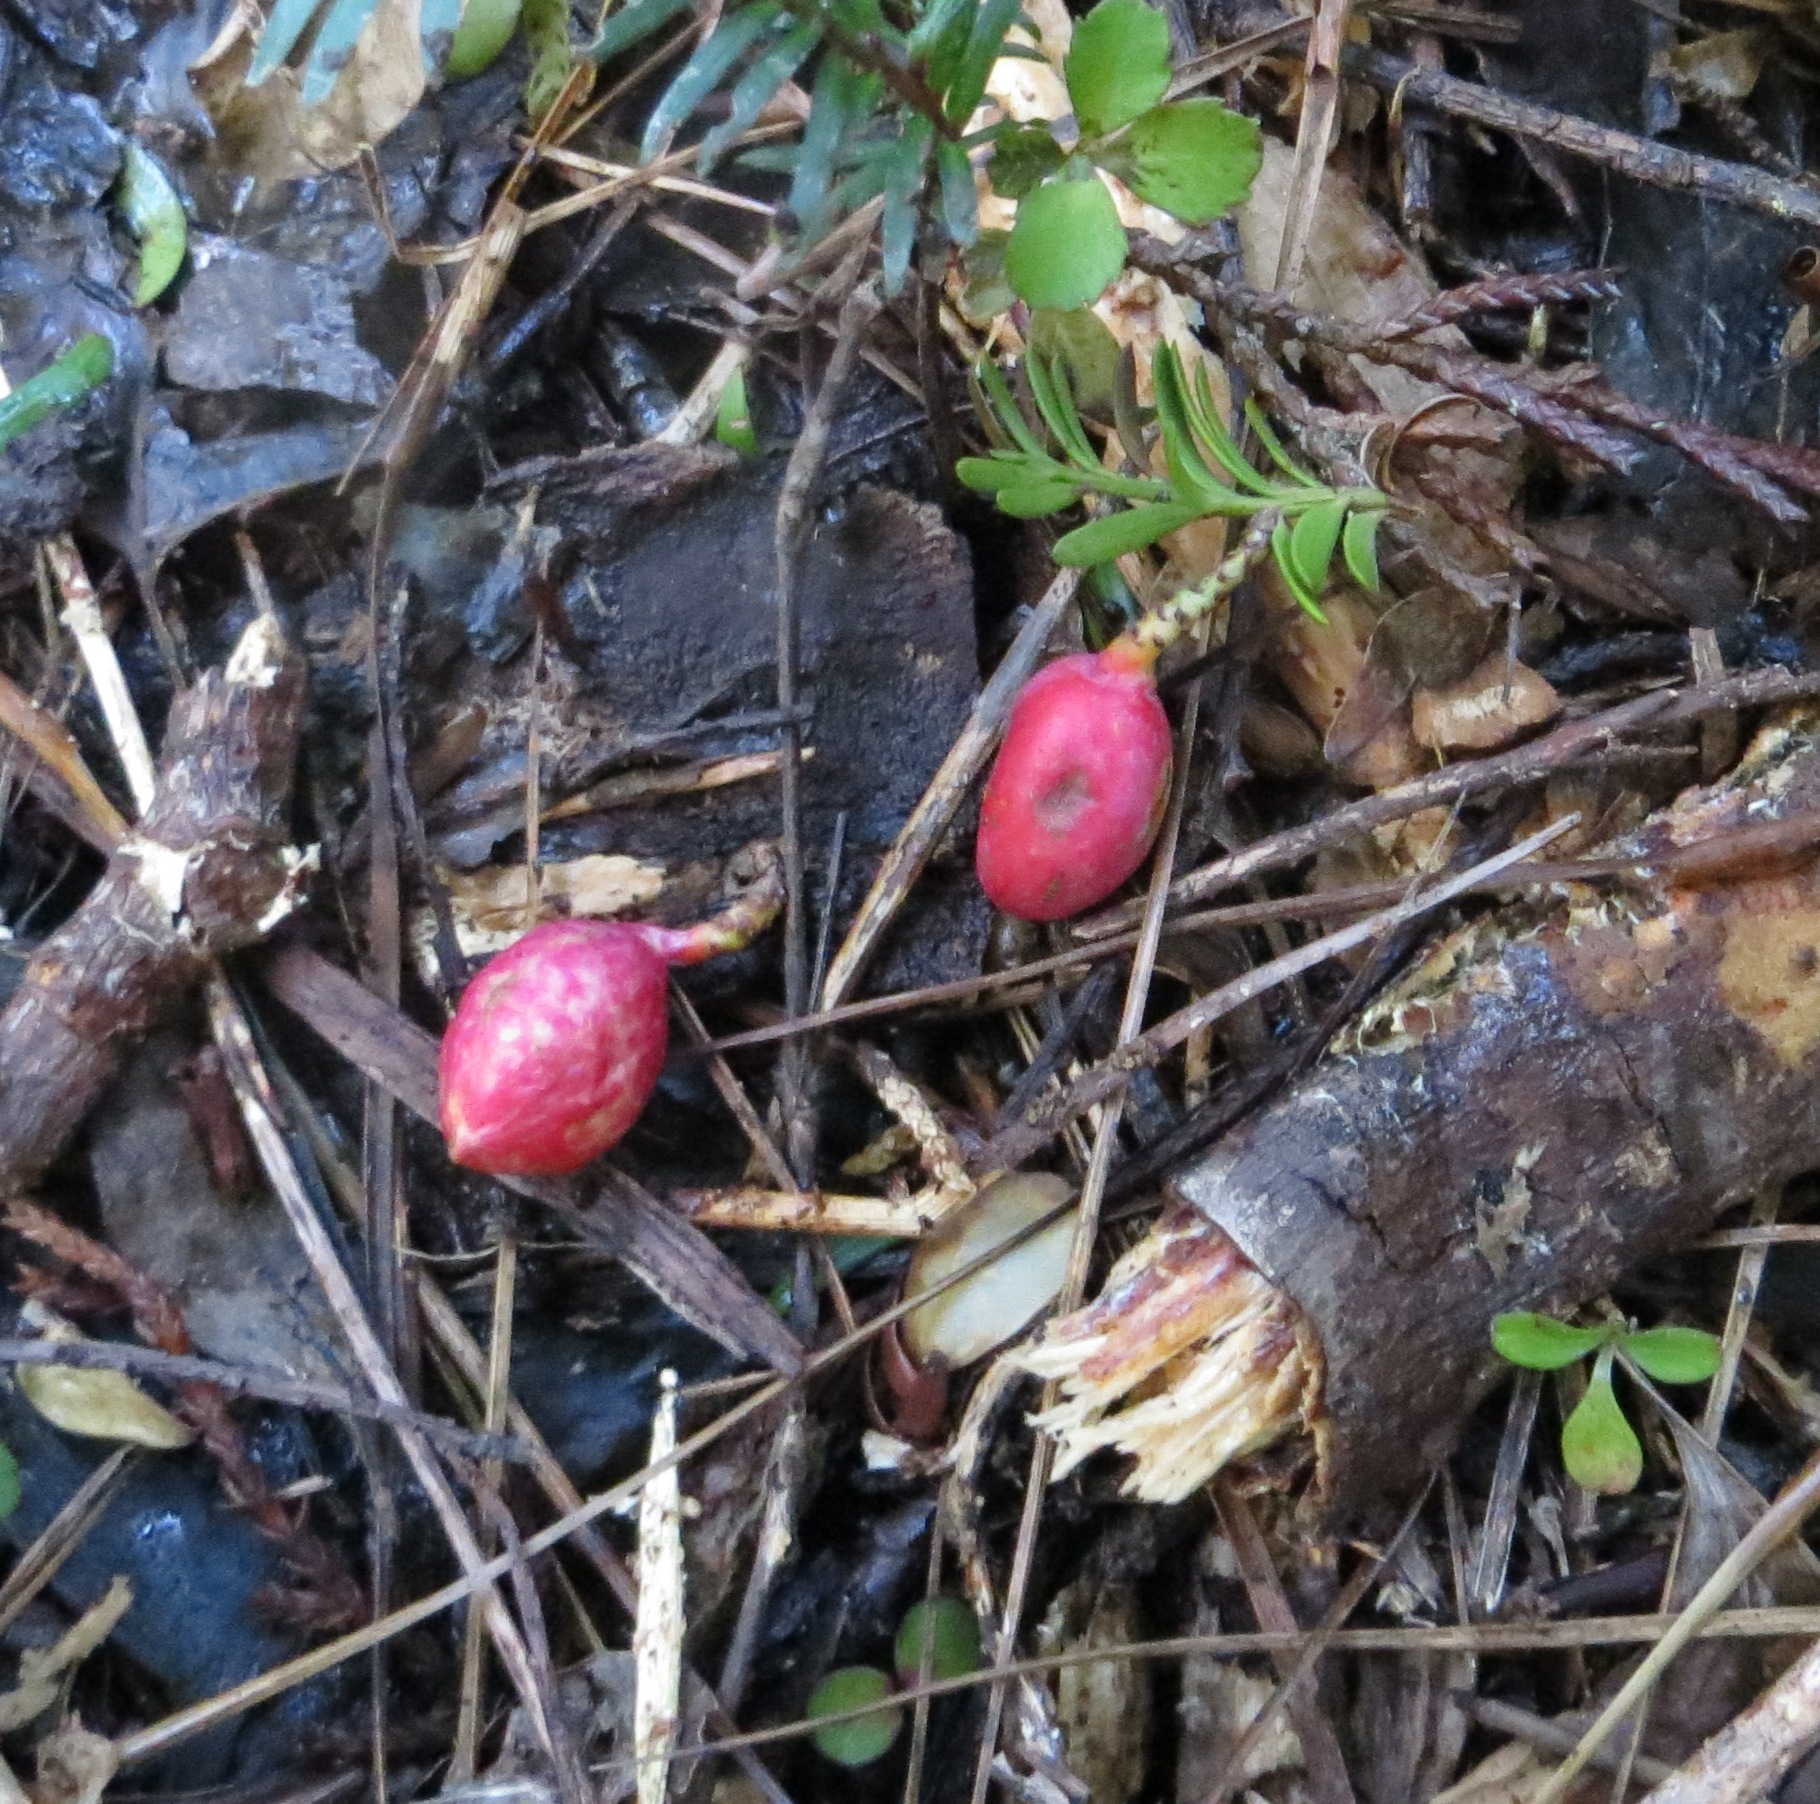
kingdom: Plantae
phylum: Tracheophyta
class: Pinopsida
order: Pinales
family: Podocarpaceae
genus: Prumnopitys
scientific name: Prumnopitys ferruginea
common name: Brown pine
